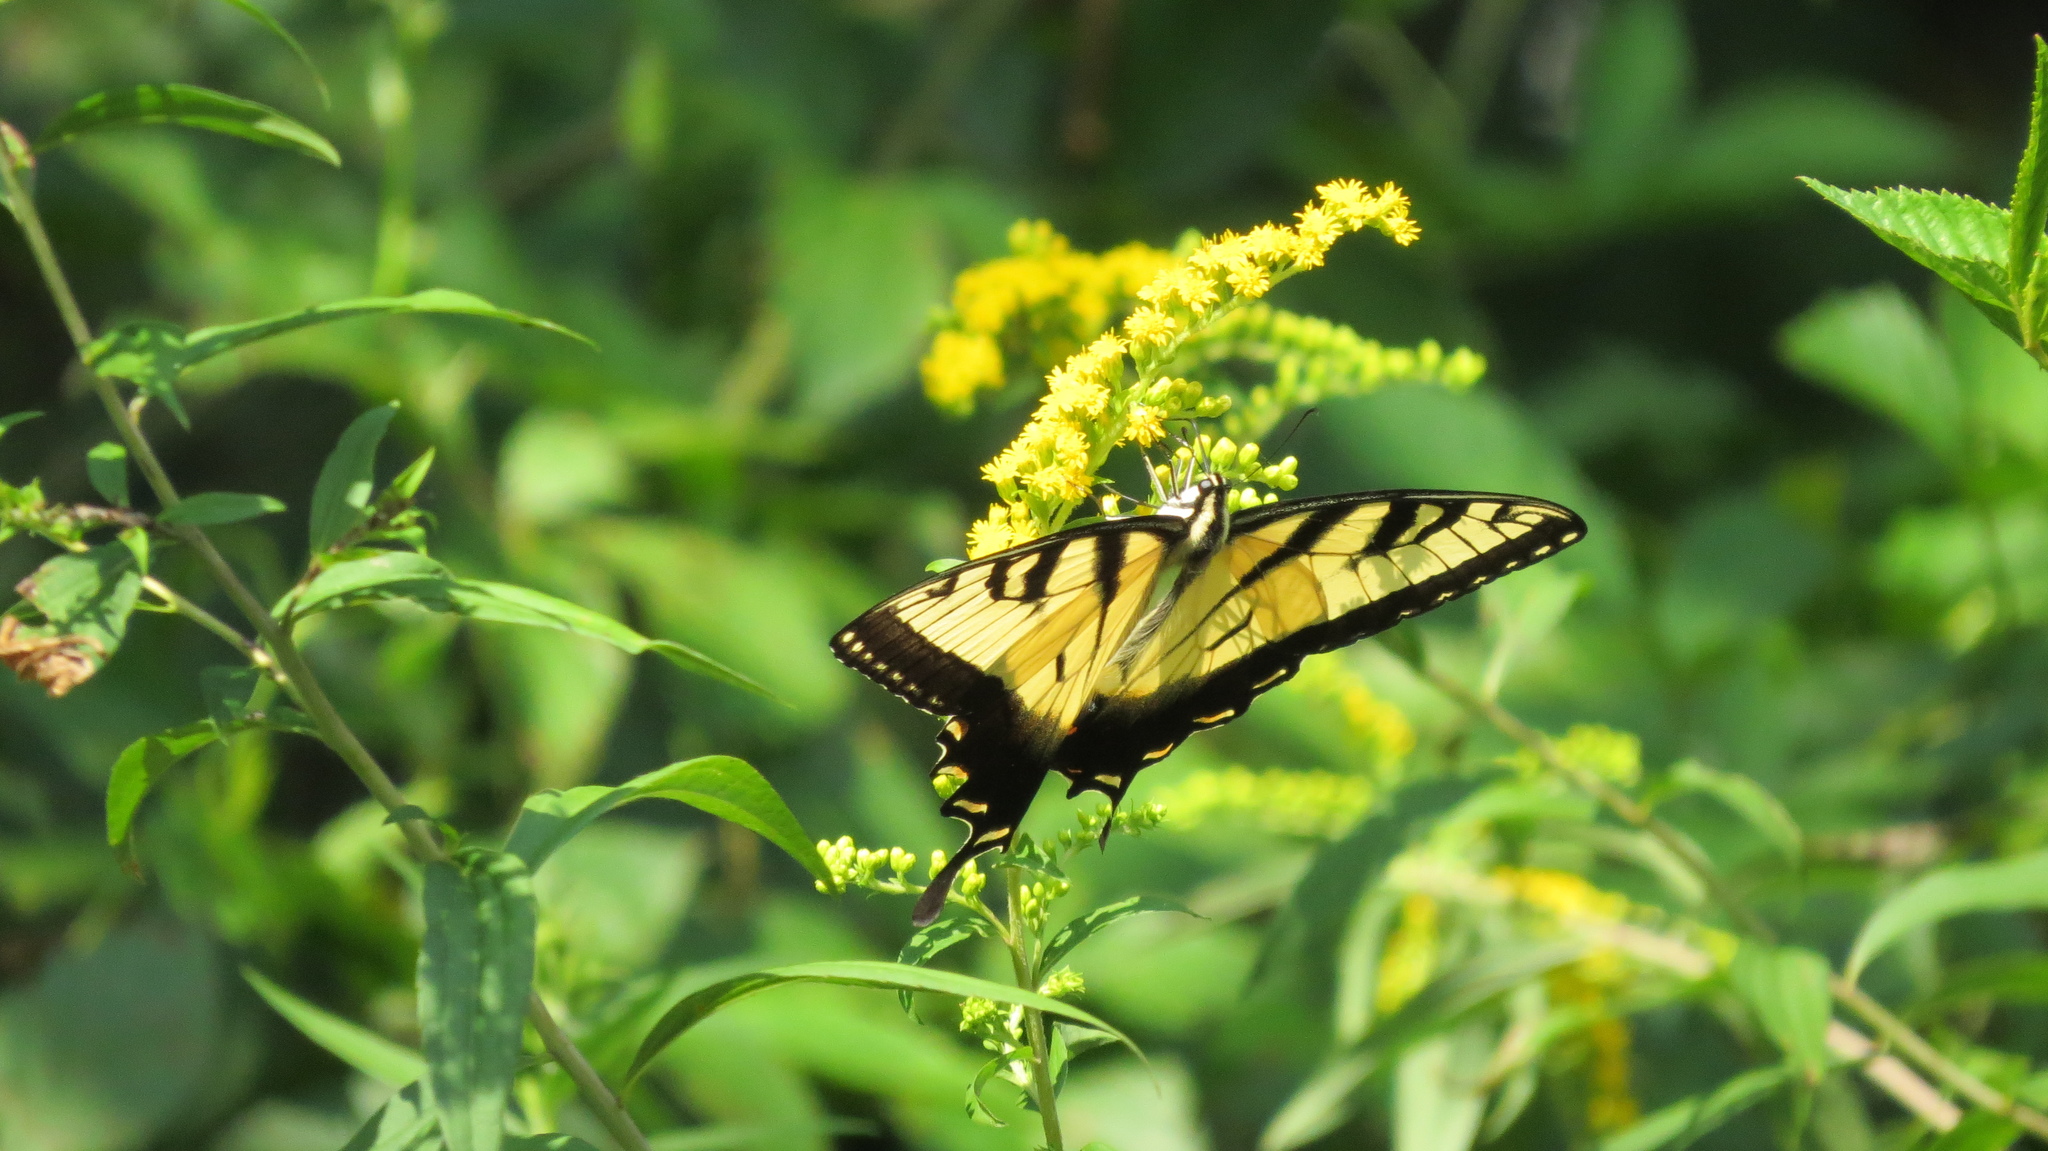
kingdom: Animalia
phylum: Arthropoda
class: Insecta
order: Lepidoptera
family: Papilionidae
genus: Papilio
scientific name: Papilio glaucus
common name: Tiger swallowtail
